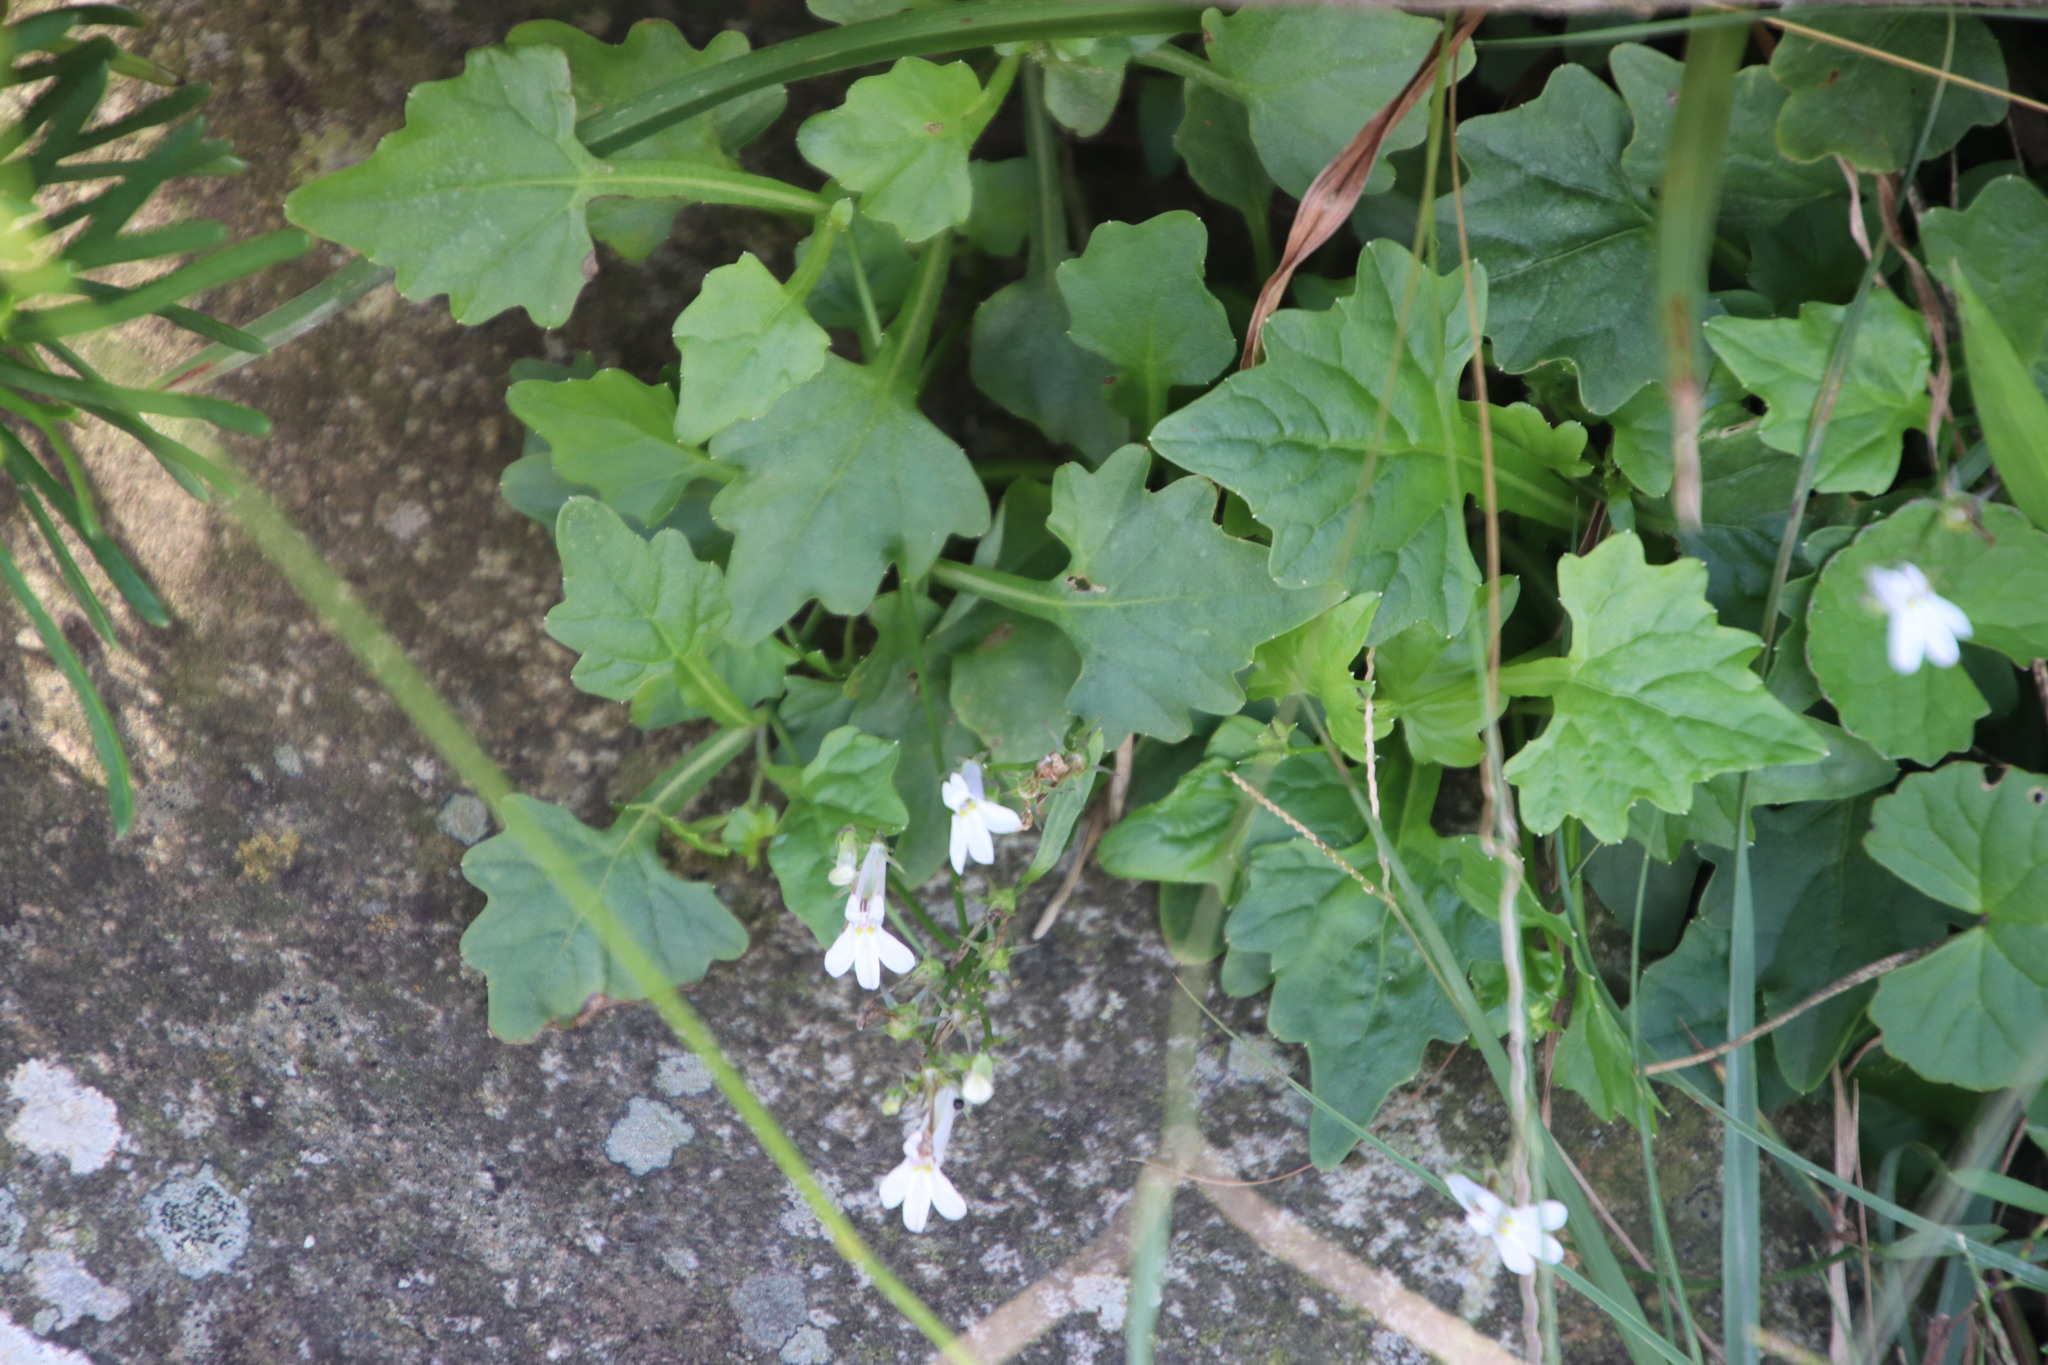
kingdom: Plantae
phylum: Tracheophyta
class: Magnoliopsida
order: Asterales
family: Campanulaceae
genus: Lobelia
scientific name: Lobelia pteropoda
